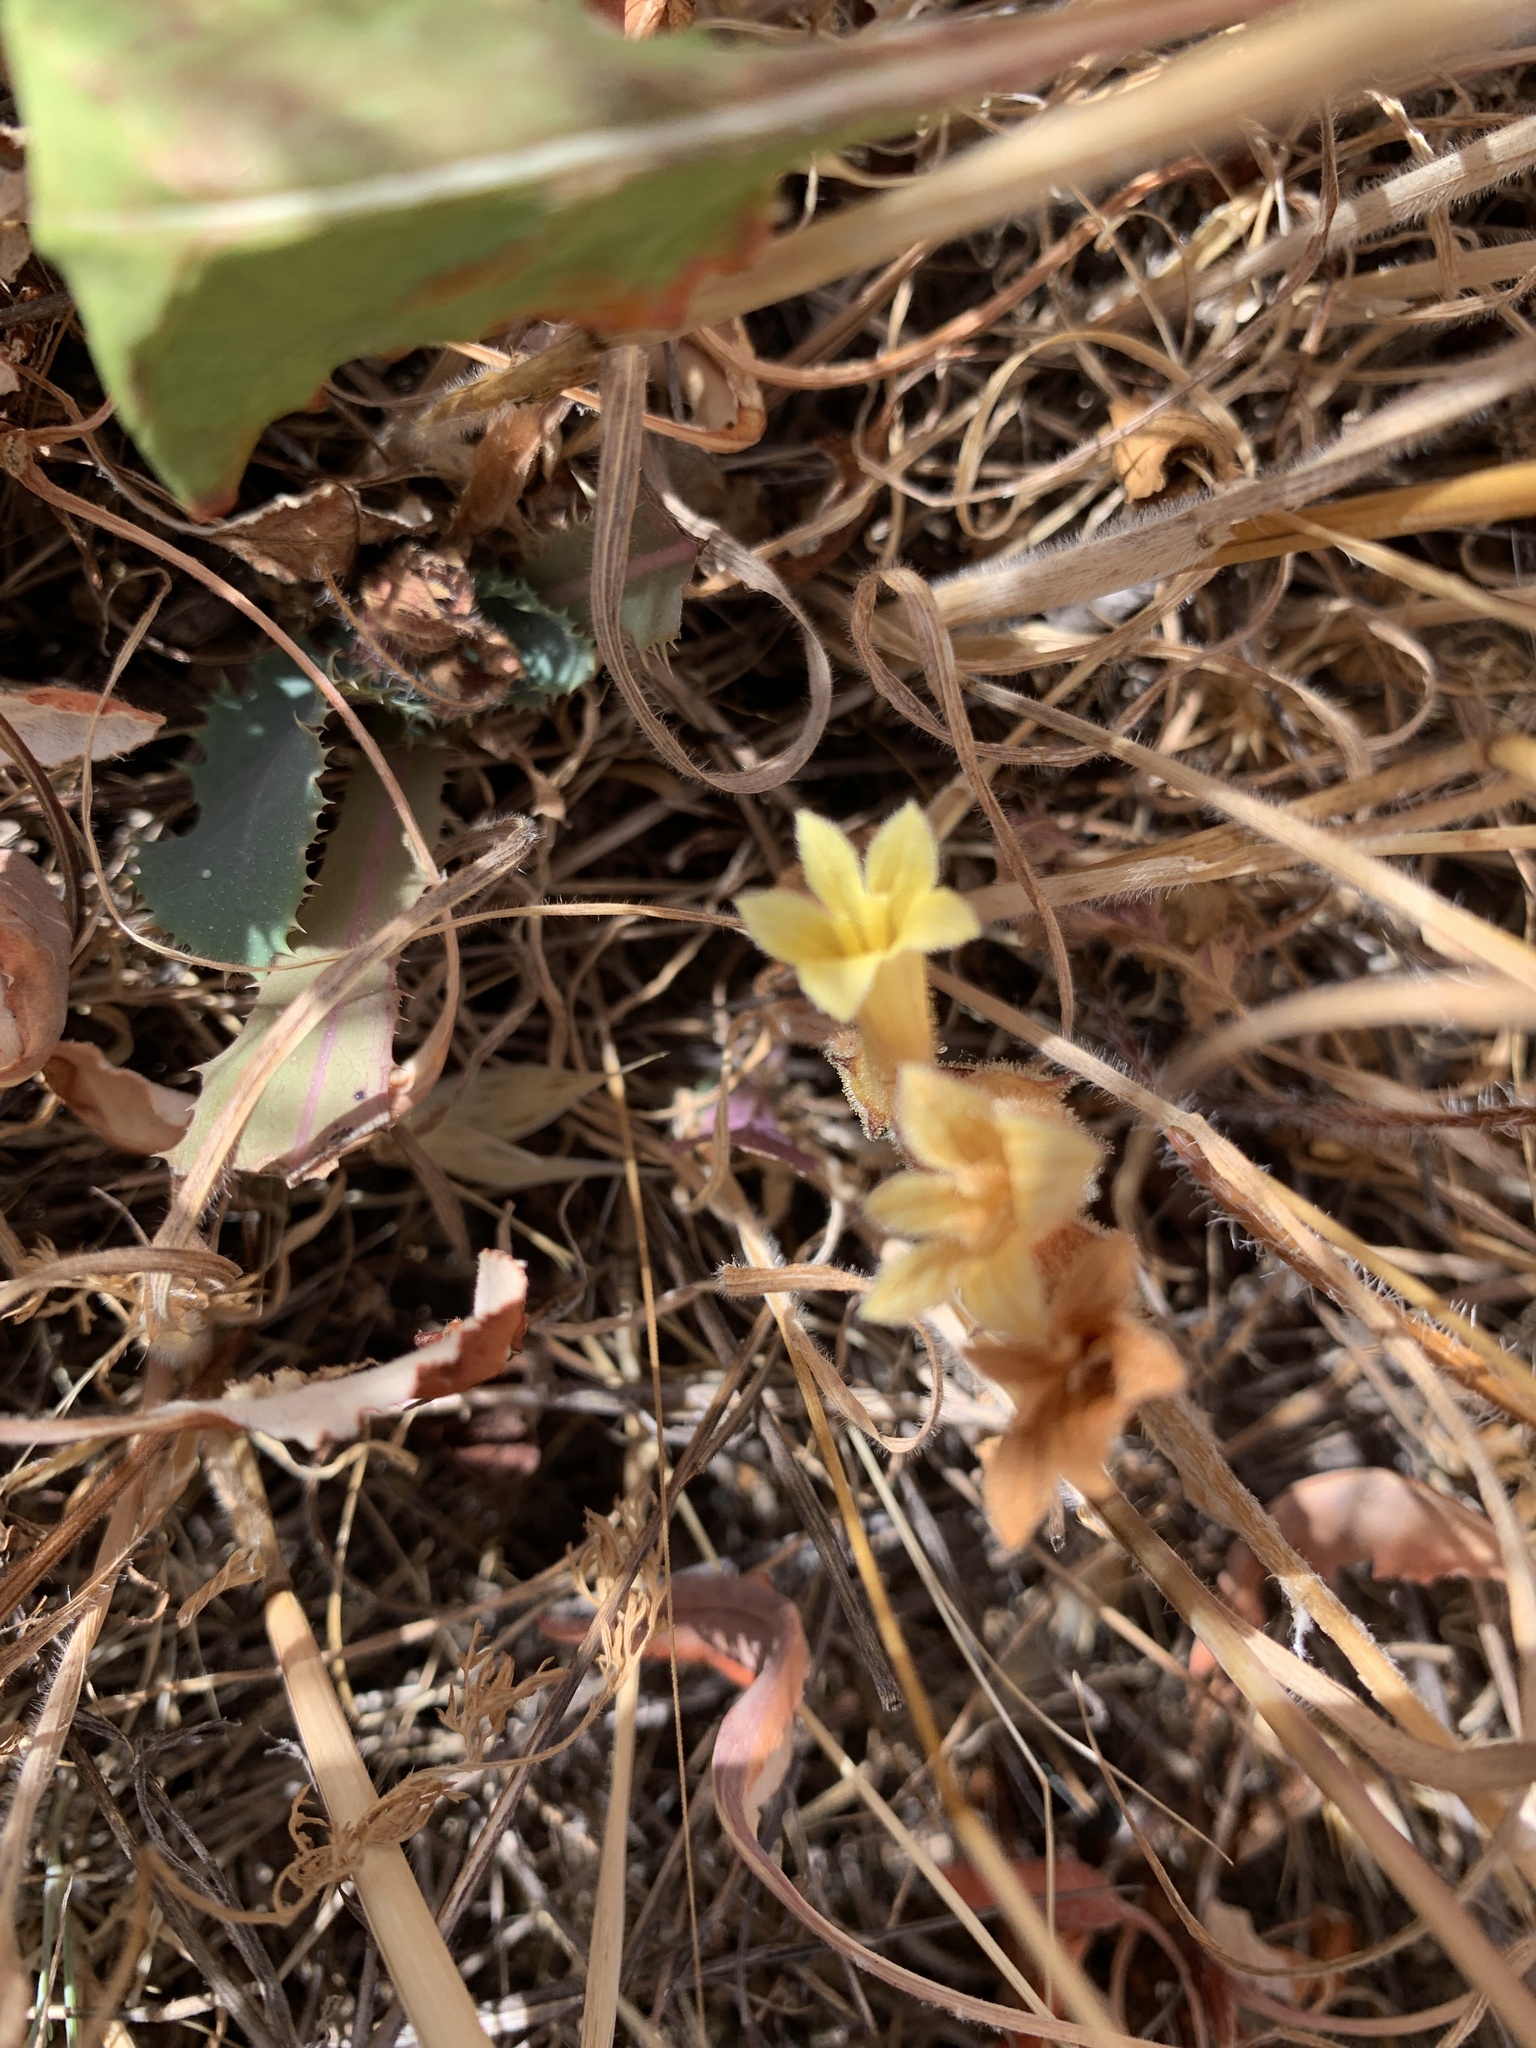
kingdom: Plantae
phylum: Tracheophyta
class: Magnoliopsida
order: Lamiales
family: Orobanchaceae
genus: Aphyllon
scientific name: Aphyllon franciscanum
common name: San francisco broomrape
